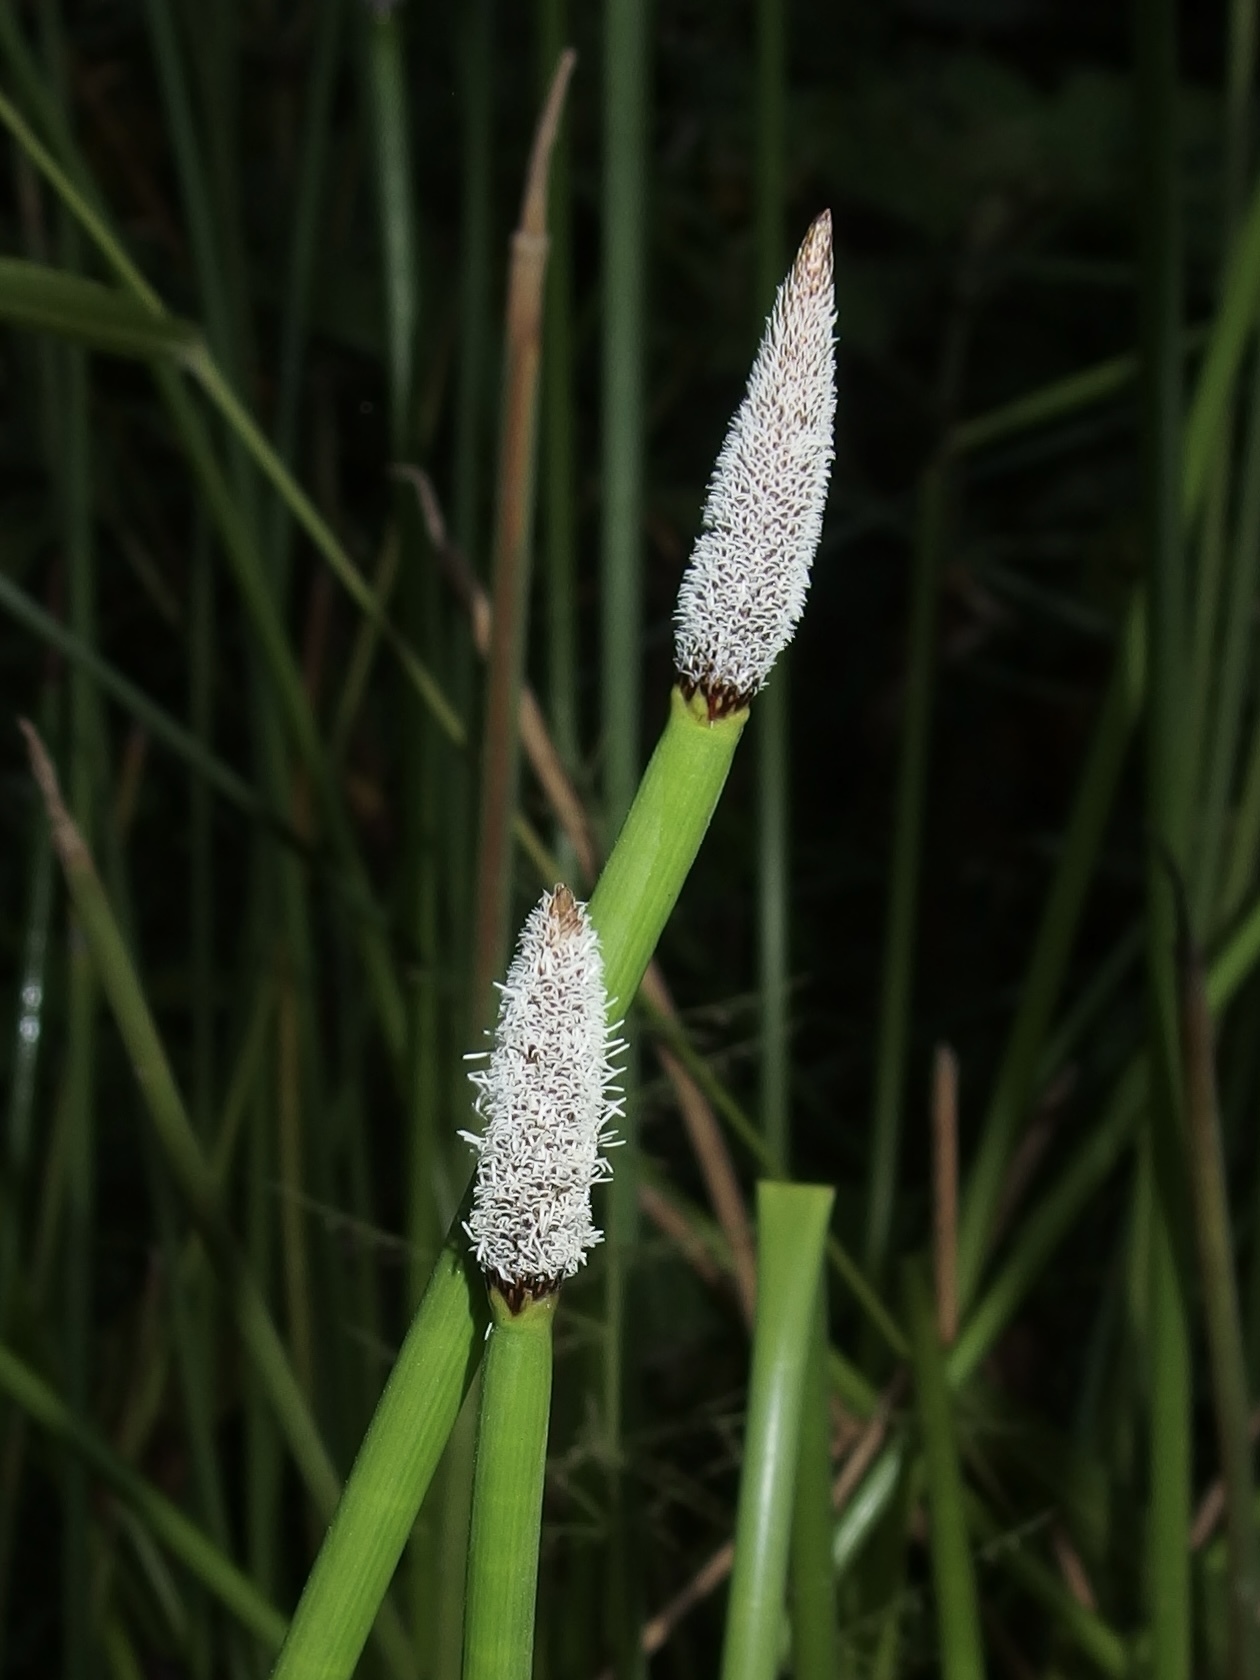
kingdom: Plantae
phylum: Tracheophyta
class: Liliopsida
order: Poales
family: Cyperaceae
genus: Eleocharis
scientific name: Eleocharis elegans
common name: Elegant spike-rush
